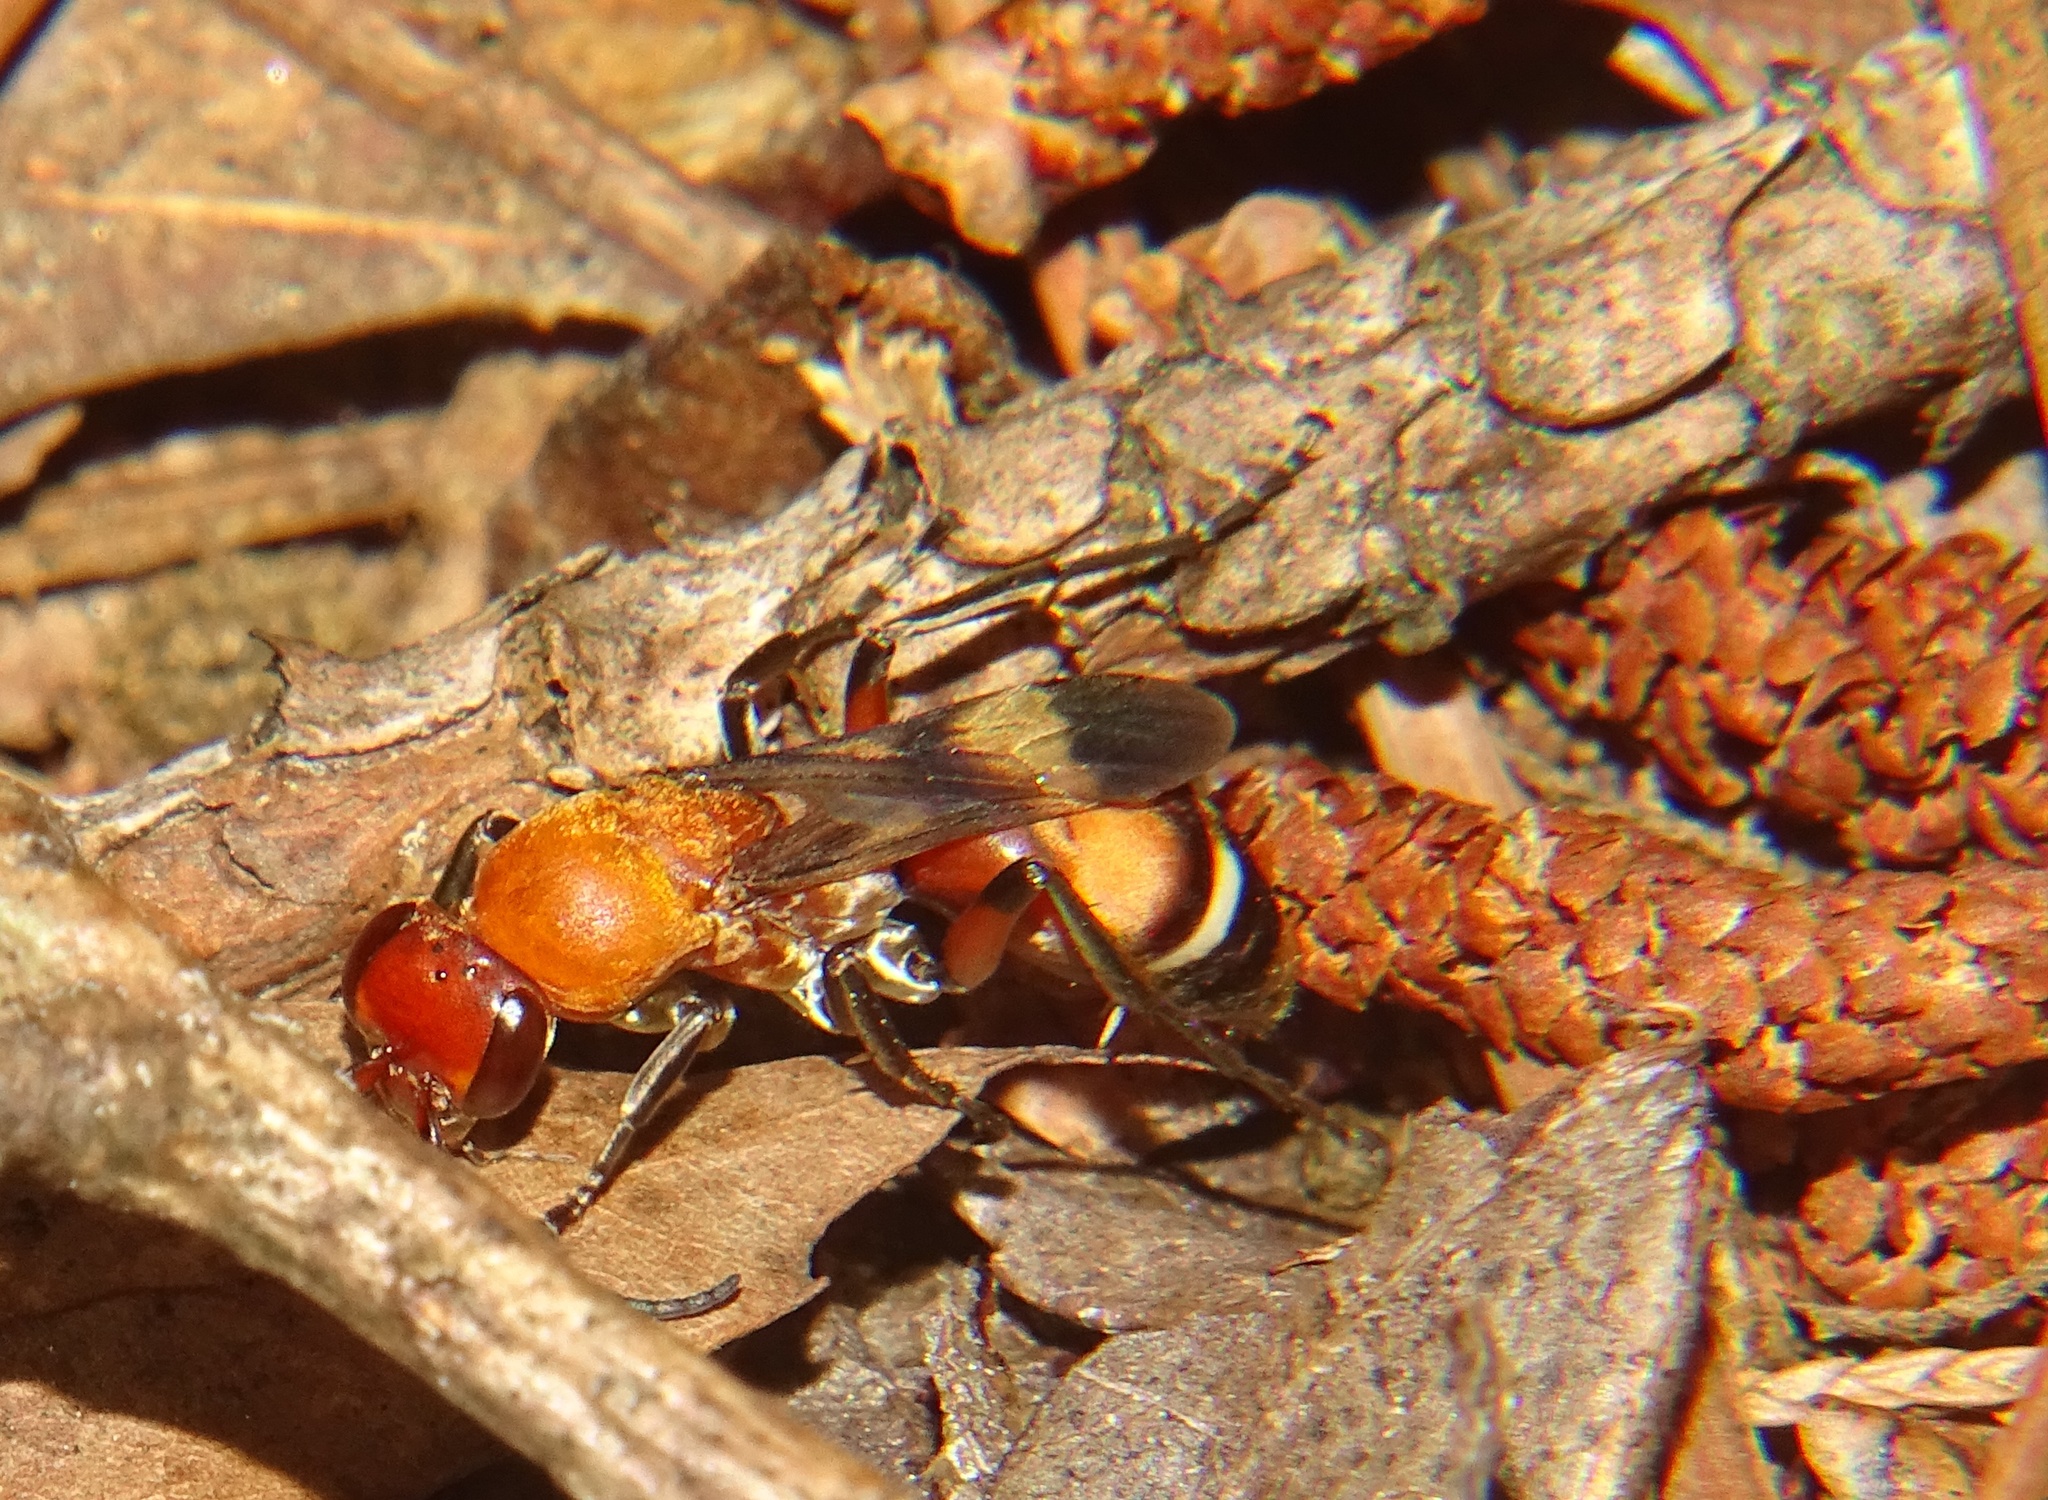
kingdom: Animalia
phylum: Arthropoda
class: Insecta
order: Hymenoptera
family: Pompilidae
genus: Psorthaspis
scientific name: Psorthaspis legata
